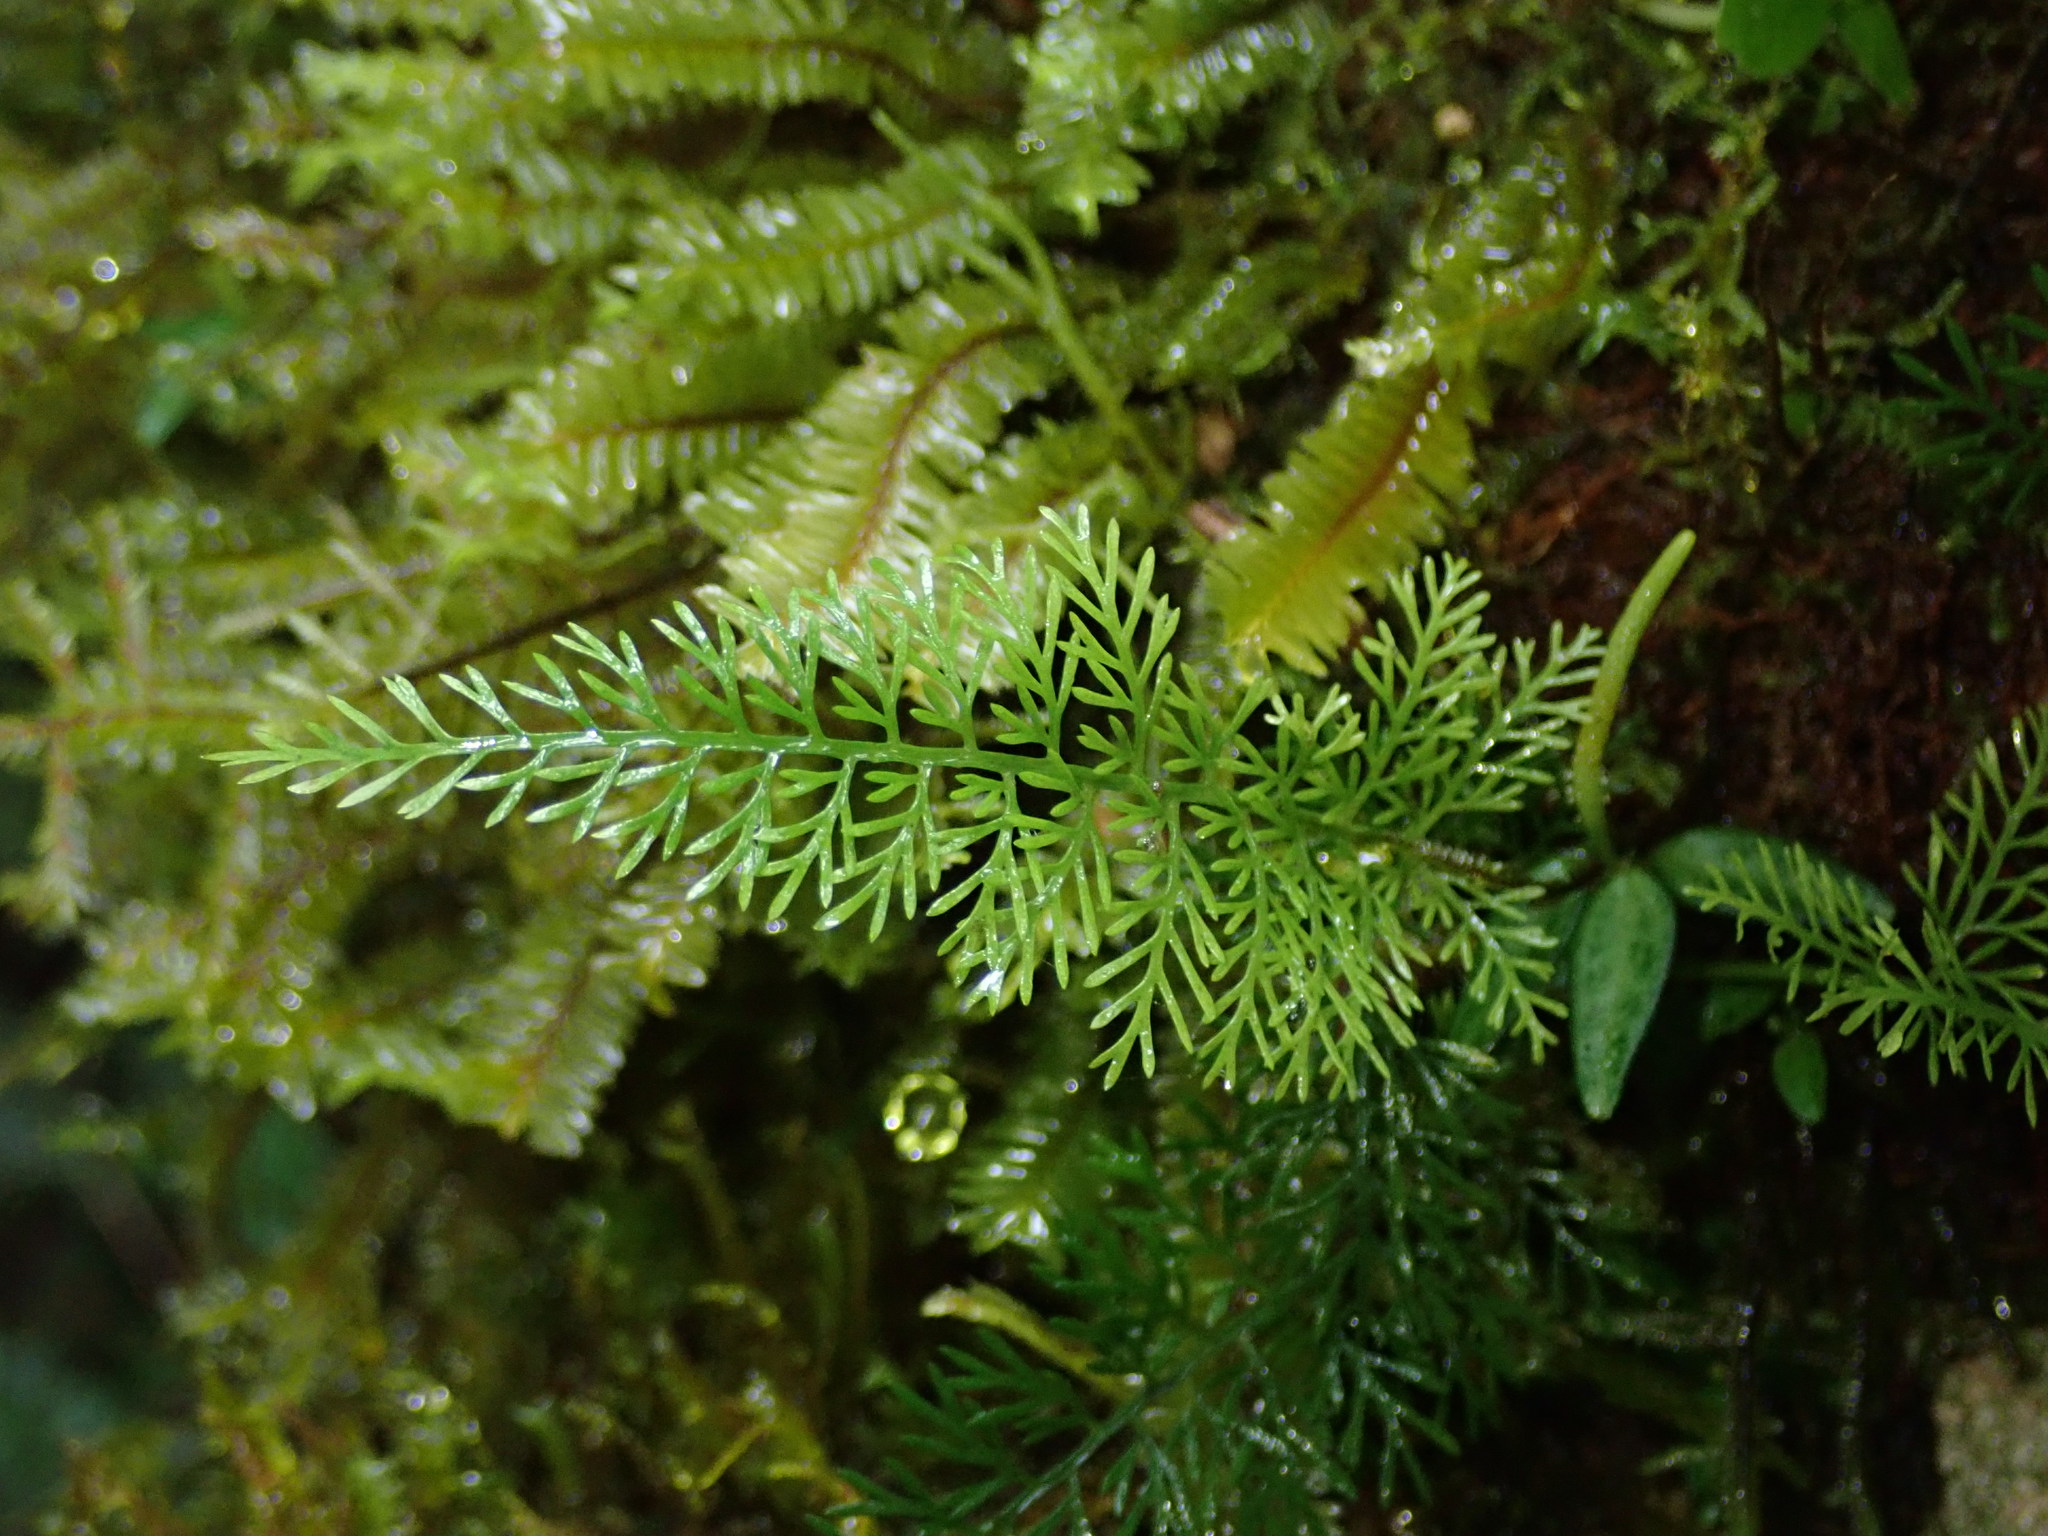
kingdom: Plantae
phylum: Tracheophyta
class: Polypodiopsida
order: Polypodiales
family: Aspleniaceae
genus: Asplenium
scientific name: Asplenium fragrans
